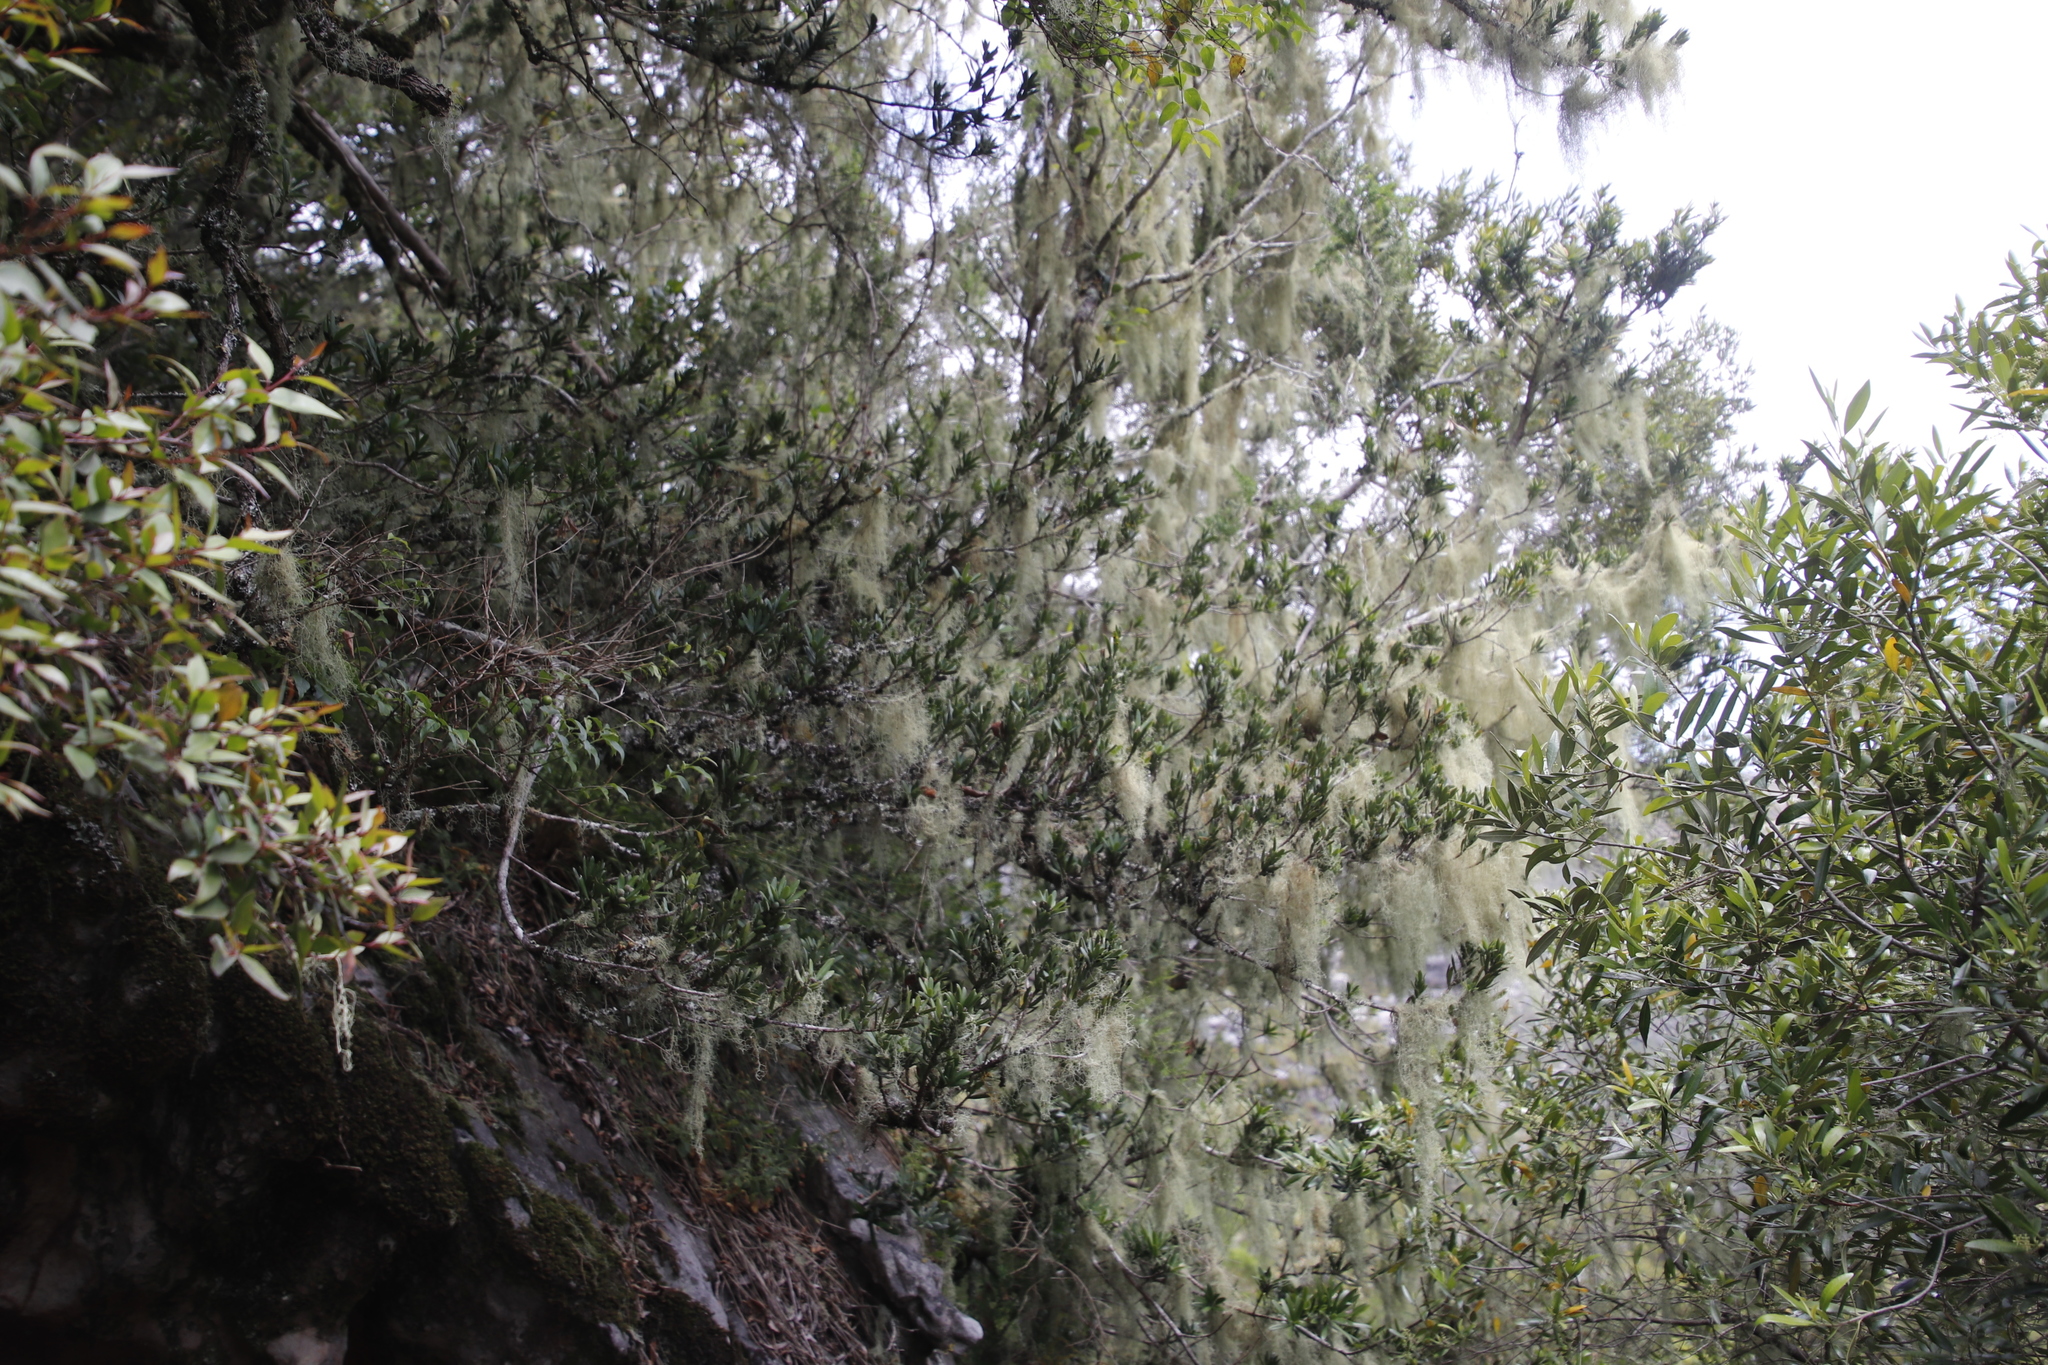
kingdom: Plantae
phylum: Tracheophyta
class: Pinopsida
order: Pinales
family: Podocarpaceae
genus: Podocarpus
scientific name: Podocarpus latifolius
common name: True yellowwood
